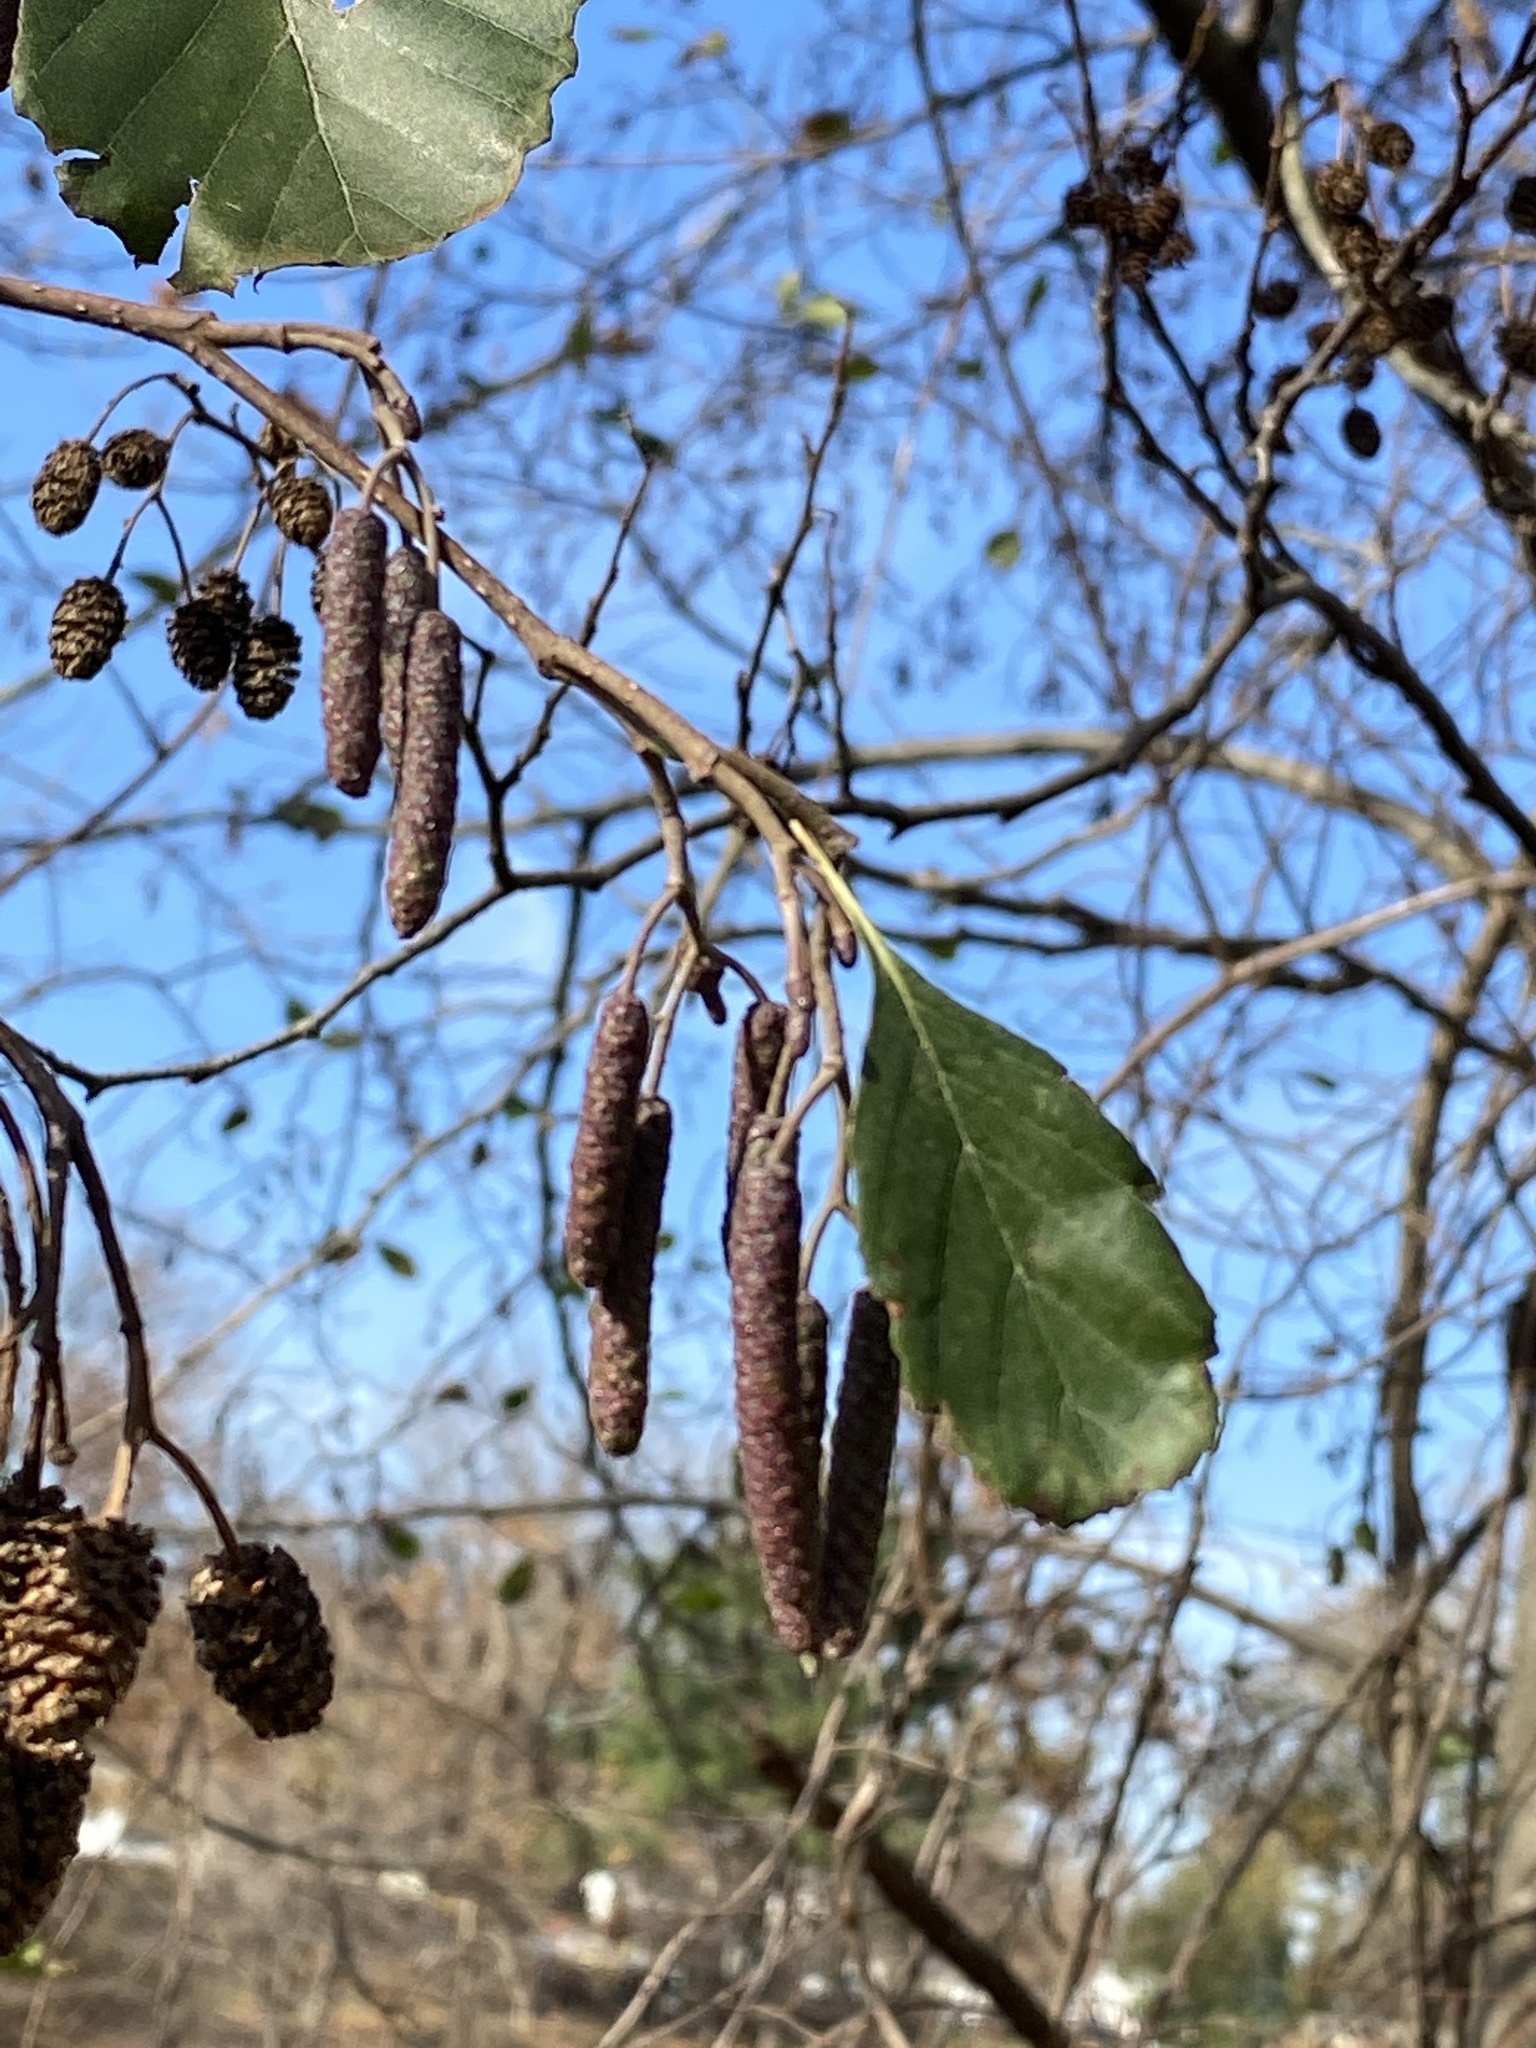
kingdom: Plantae
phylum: Tracheophyta
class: Magnoliopsida
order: Fagales
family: Betulaceae
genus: Alnus
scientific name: Alnus incana
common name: Grey alder
